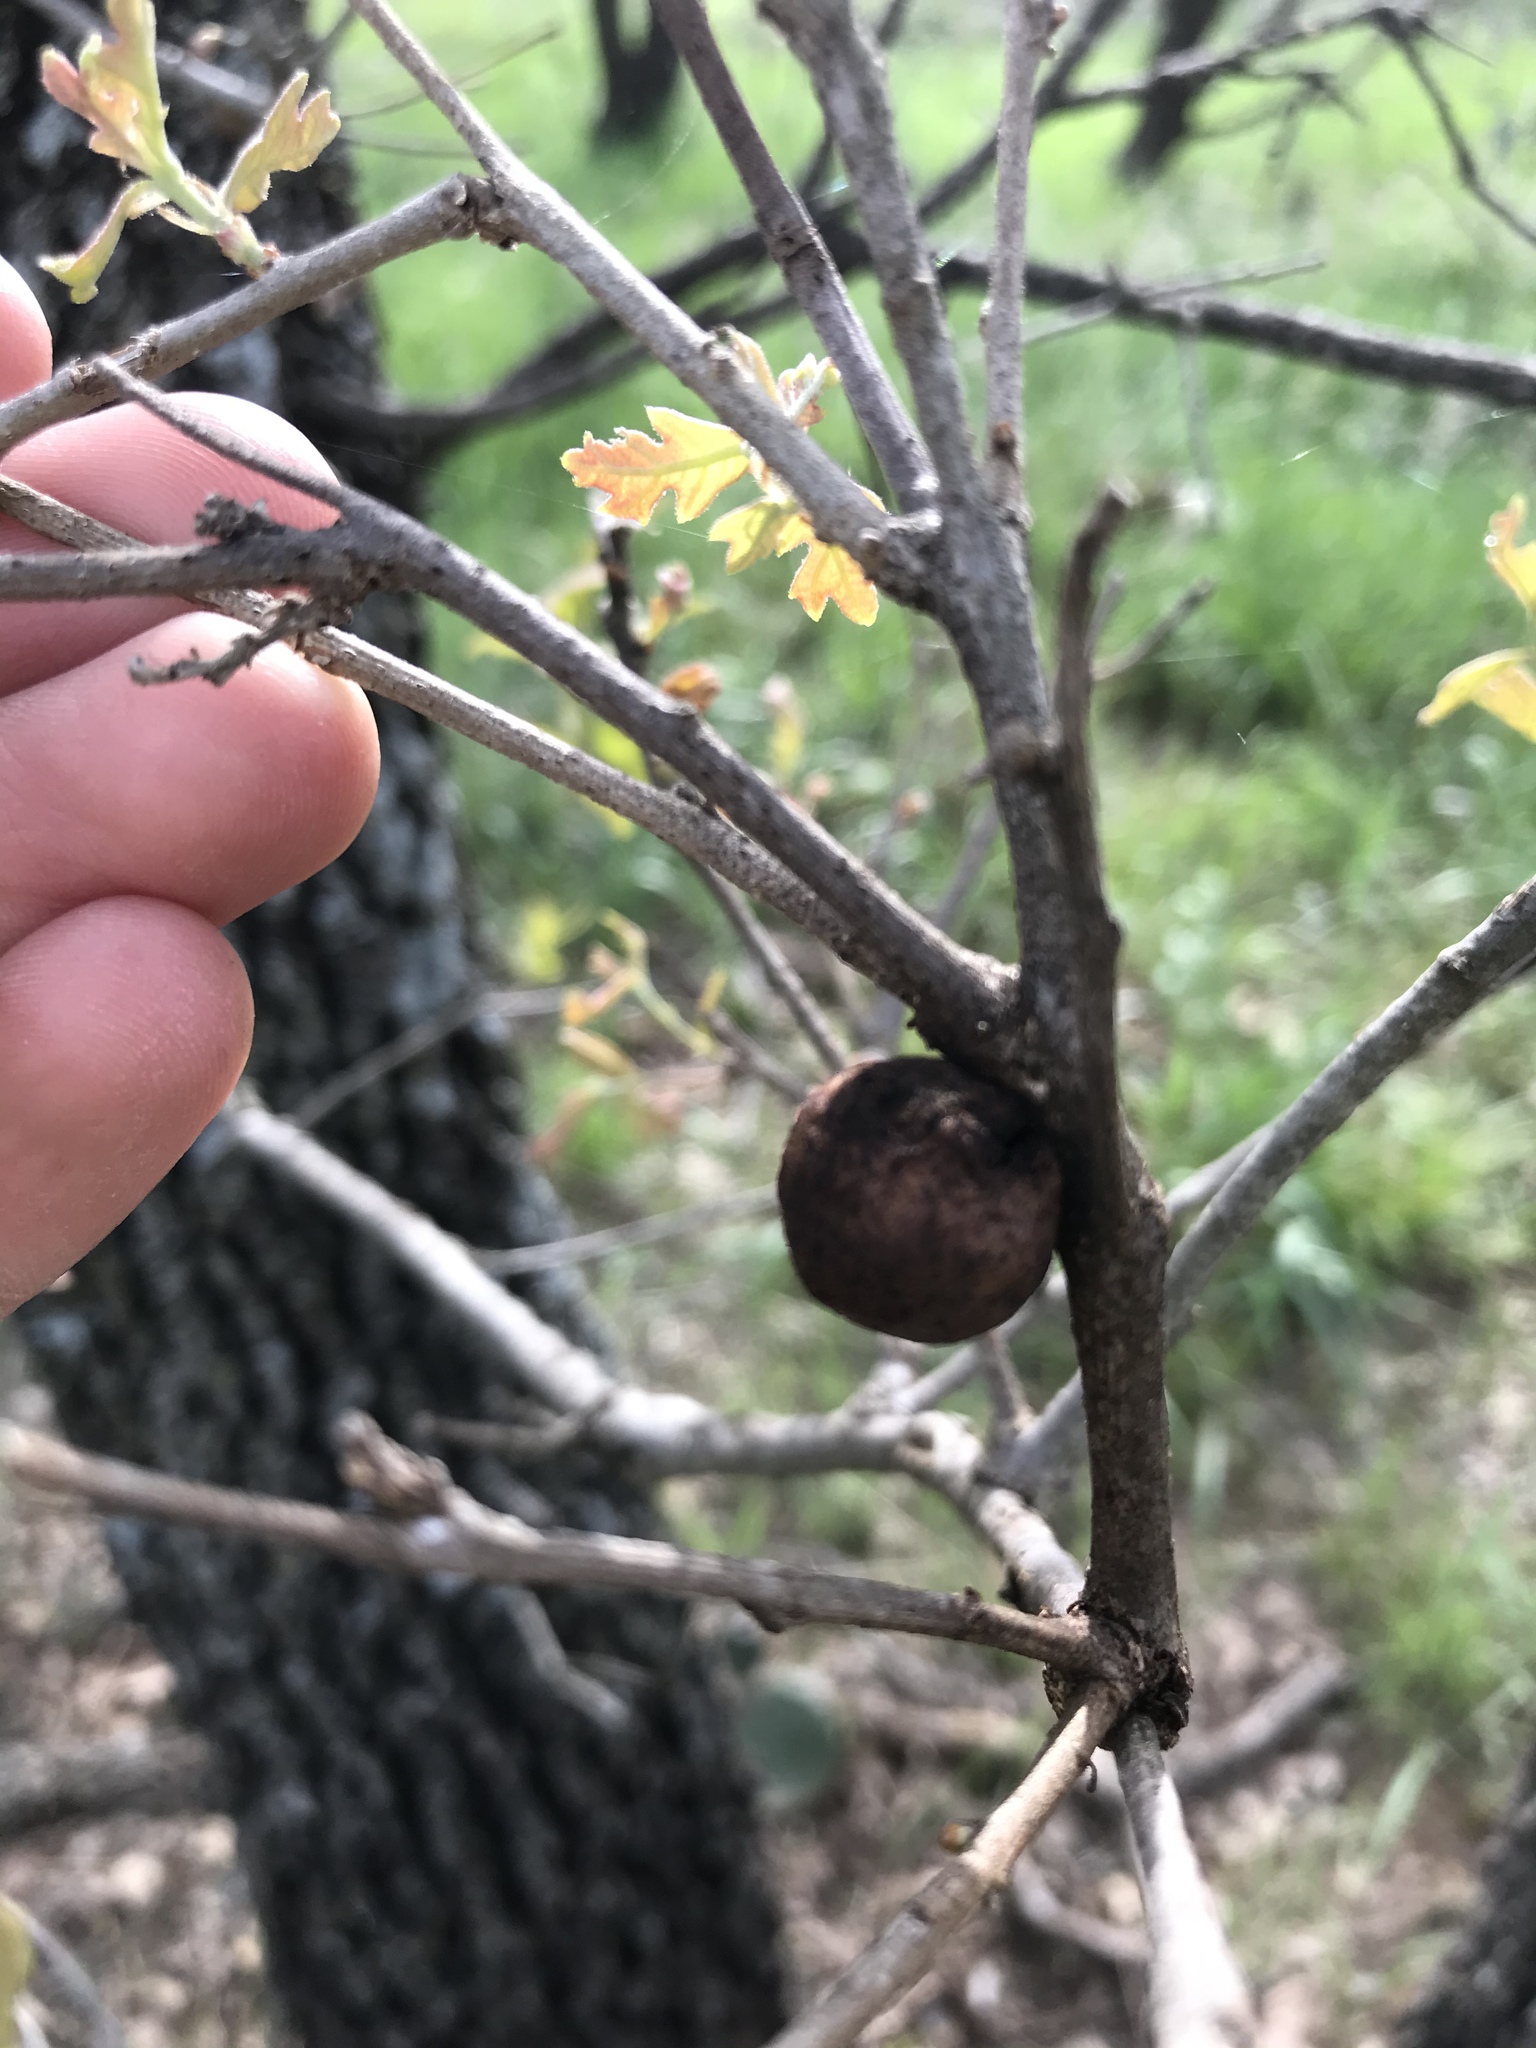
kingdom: Animalia
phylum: Arthropoda
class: Insecta
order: Hymenoptera
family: Cynipidae
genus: Disholcaspis
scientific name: Disholcaspis
